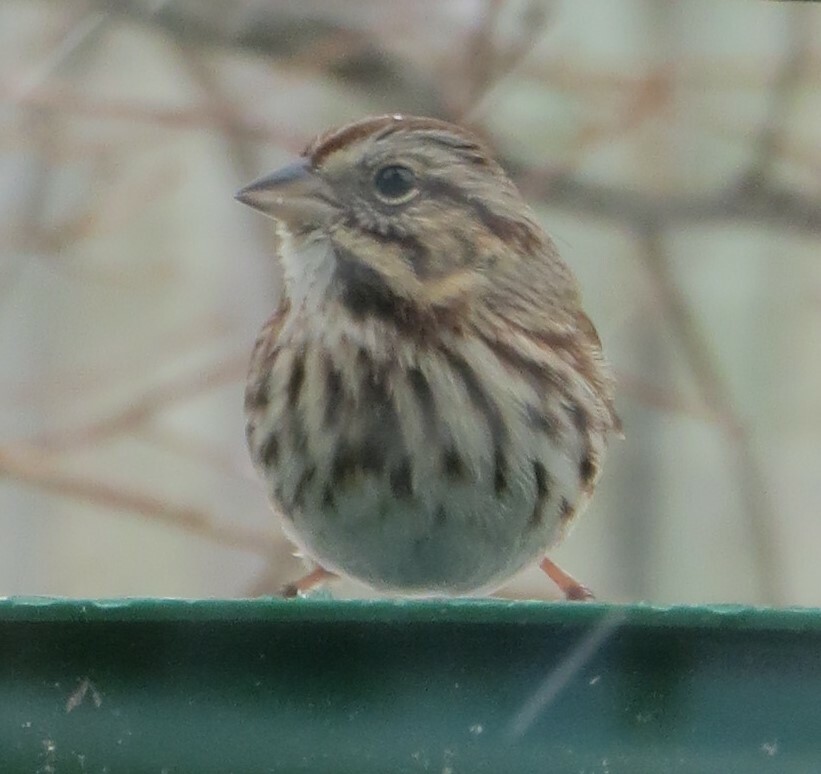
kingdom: Animalia
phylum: Chordata
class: Aves
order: Passeriformes
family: Passerellidae
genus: Melospiza
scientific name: Melospiza melodia
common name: Song sparrow
